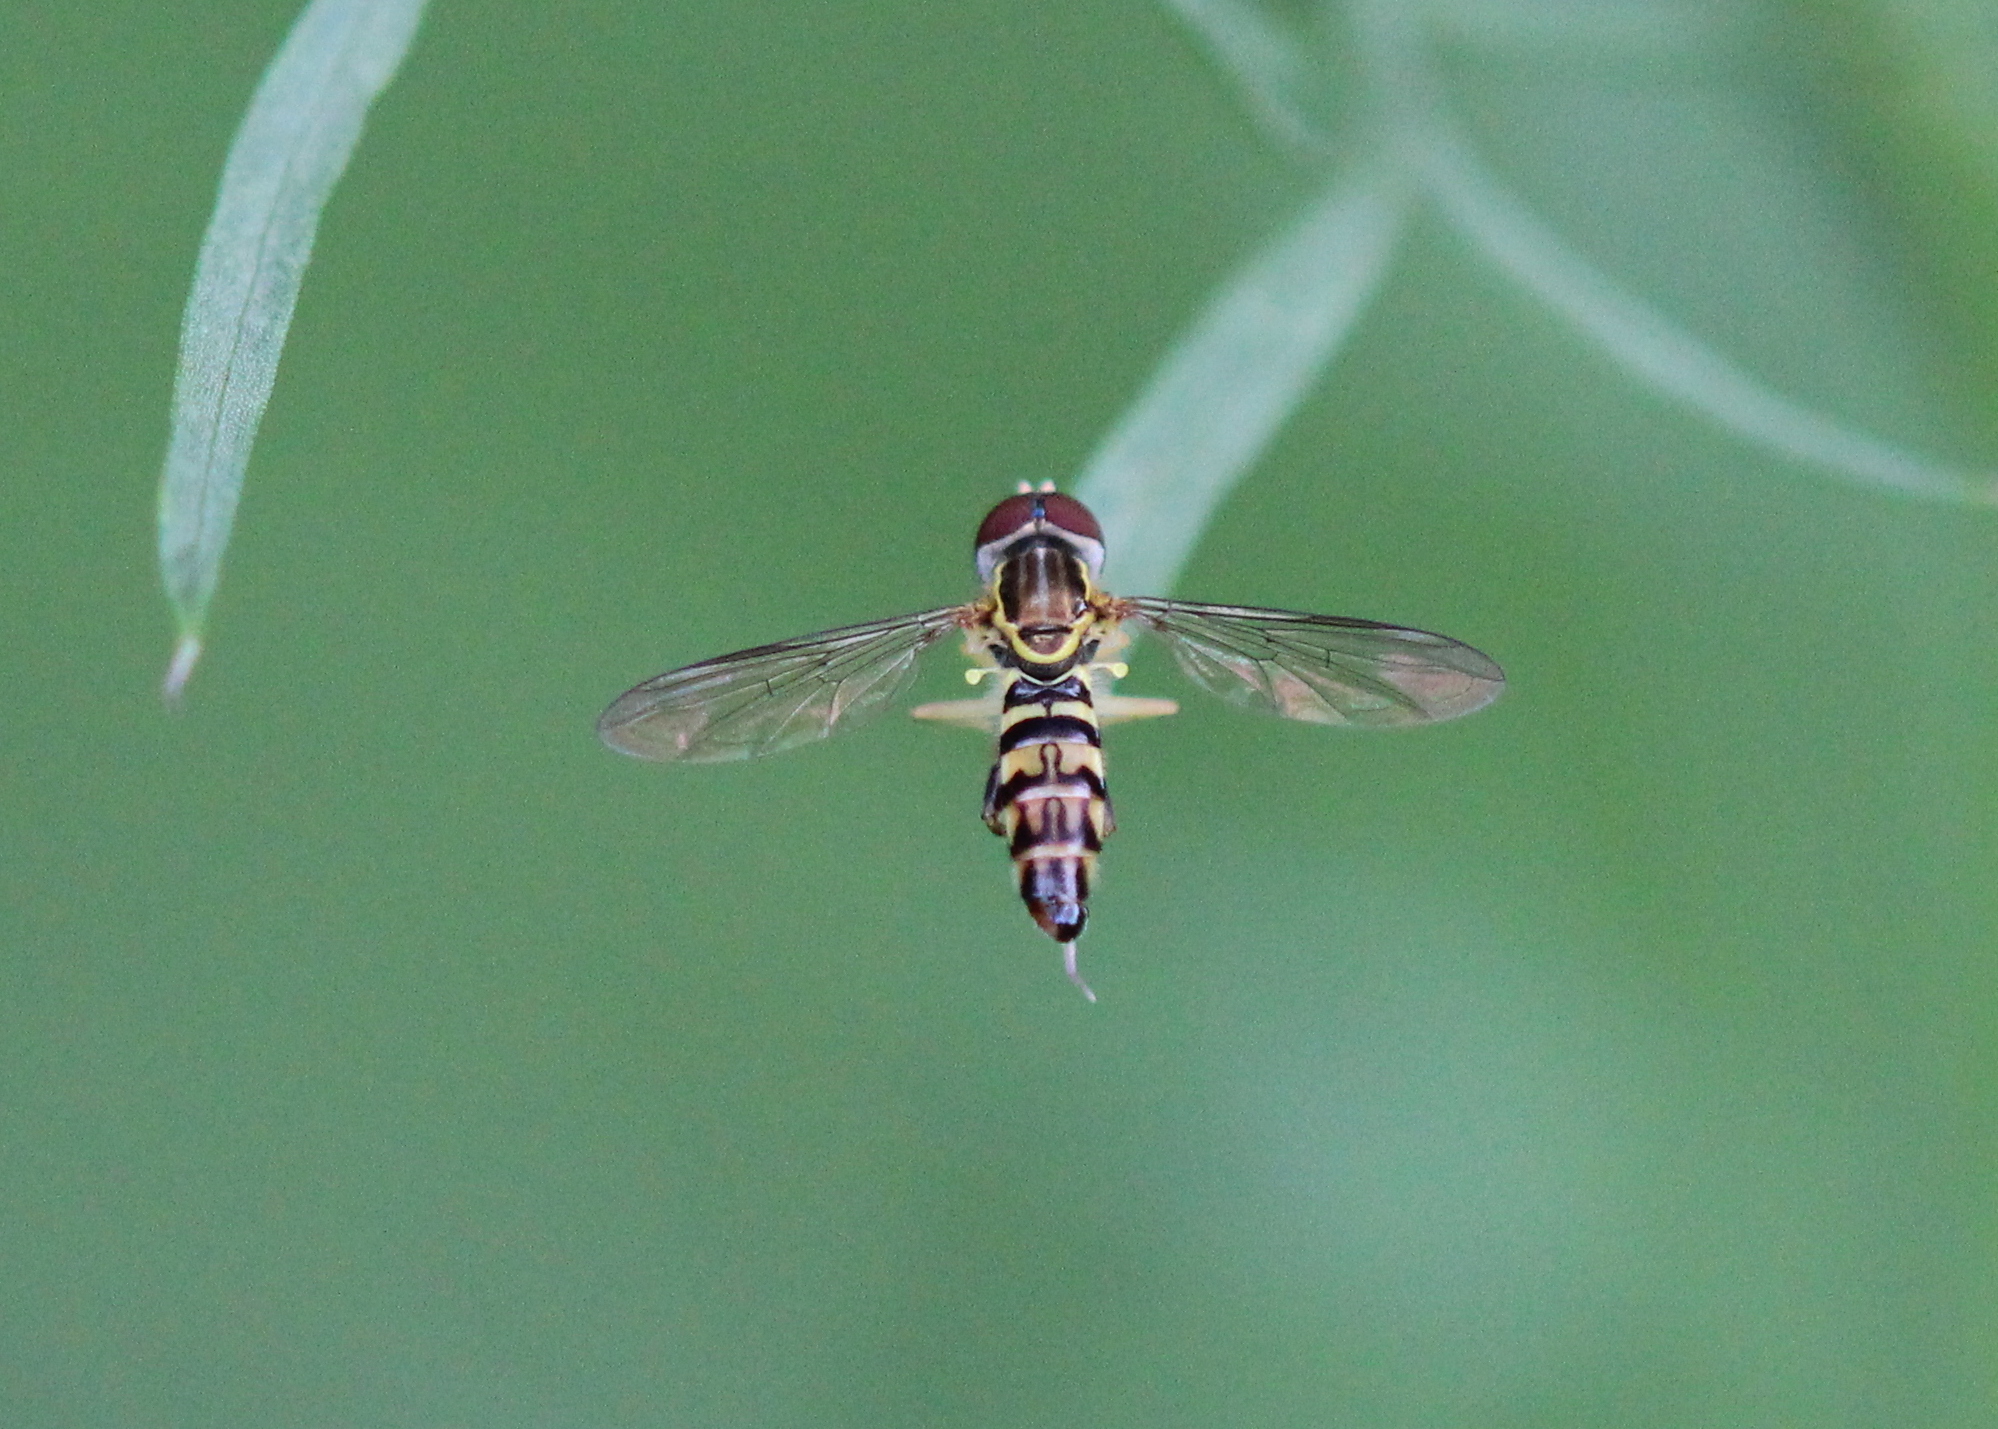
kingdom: Animalia
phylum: Arthropoda
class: Insecta
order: Diptera
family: Syrphidae
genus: Toxomerus
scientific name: Toxomerus geminatus
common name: Eastern calligrapher
